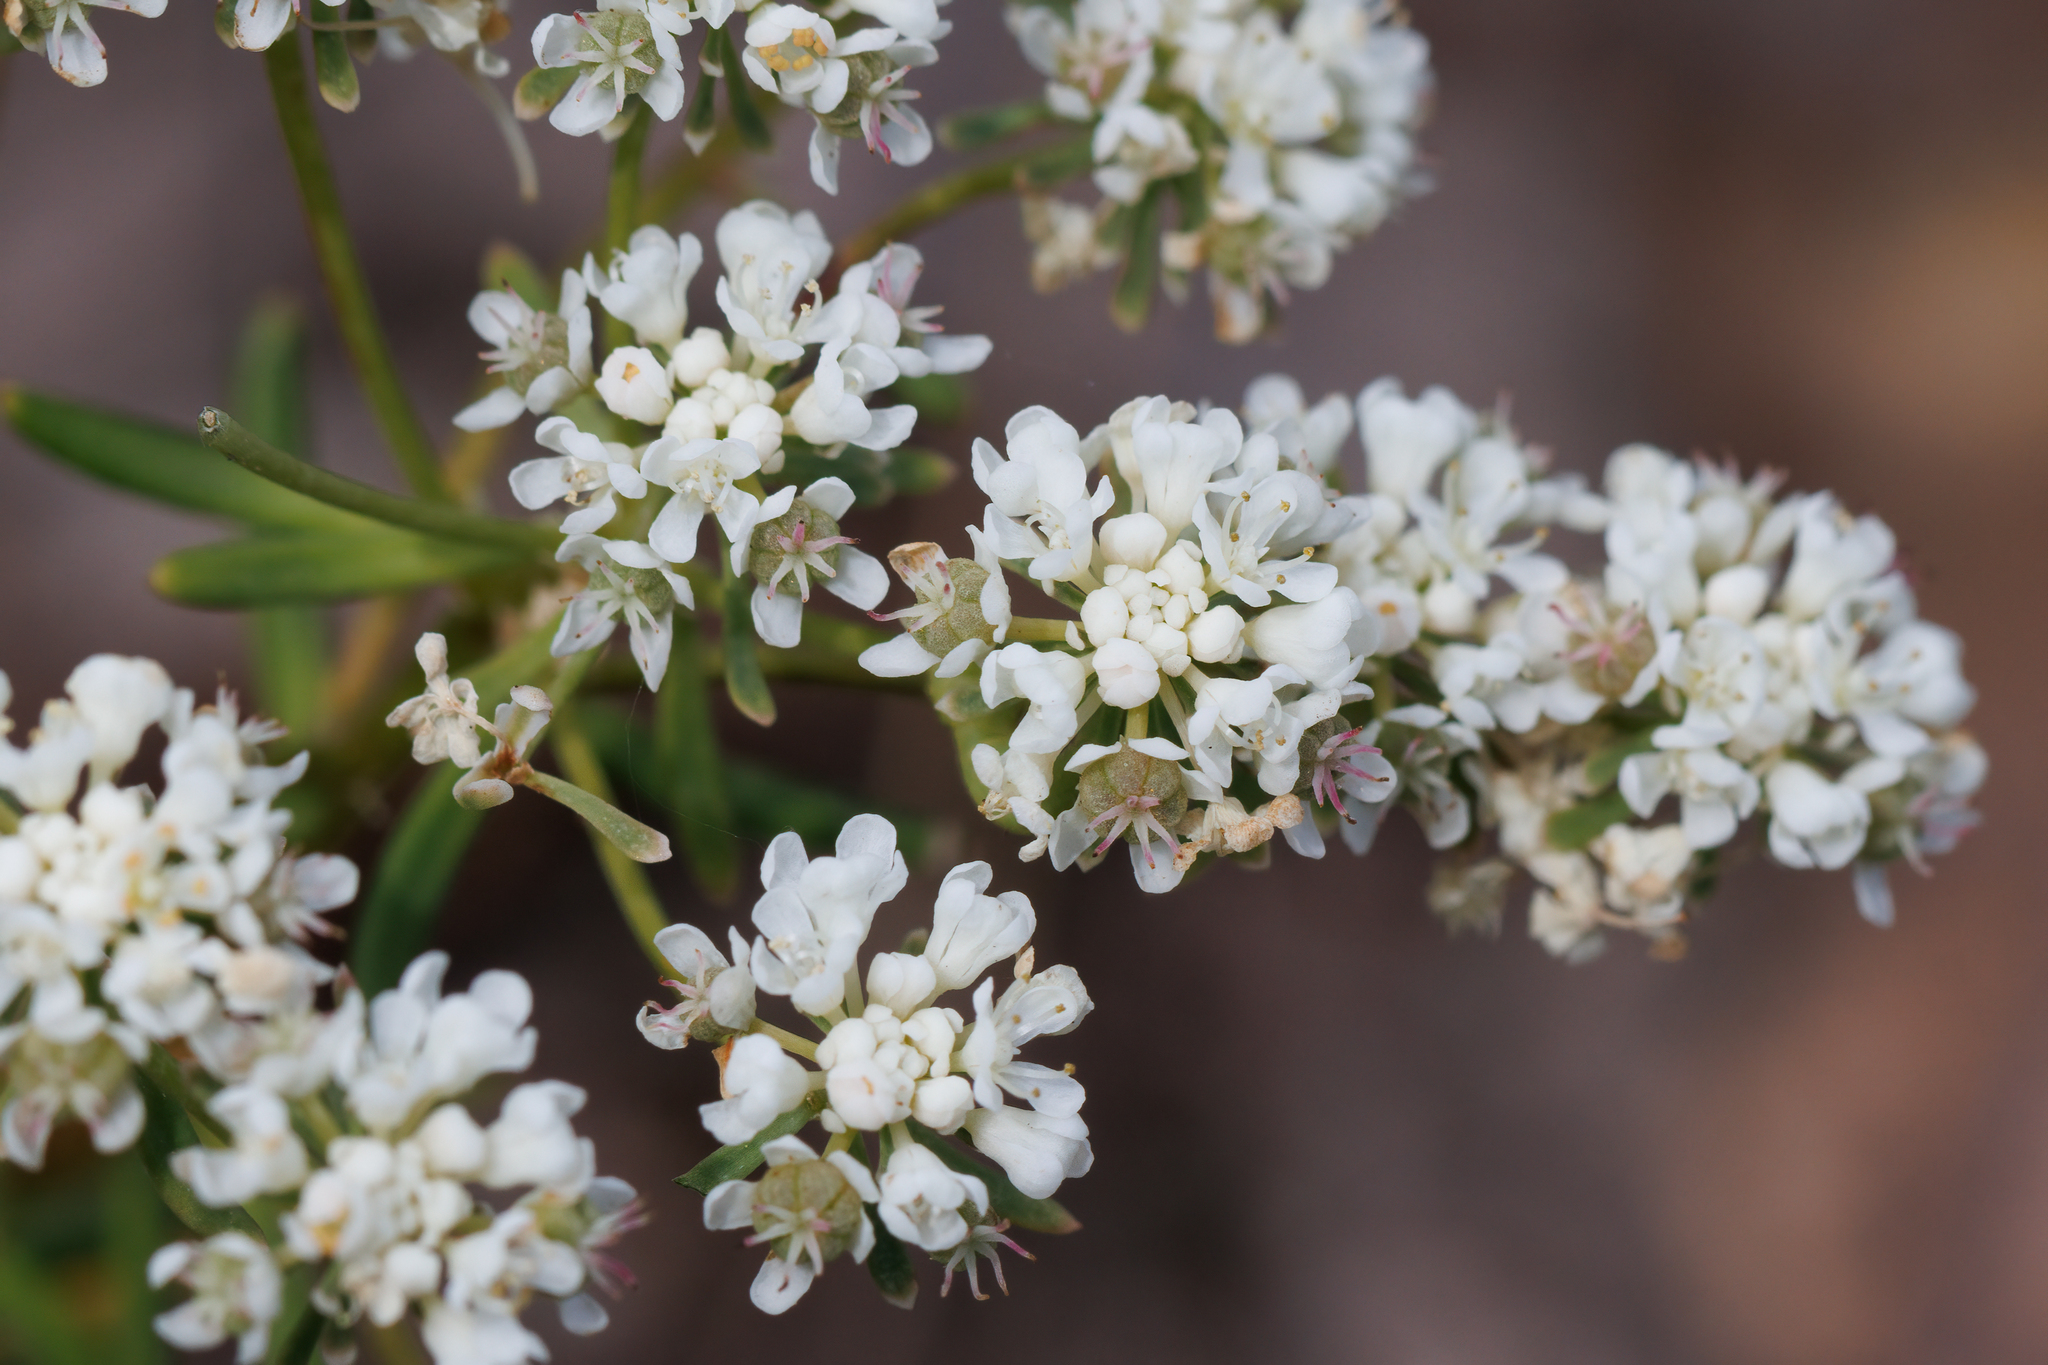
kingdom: Plantae
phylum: Tracheophyta
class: Magnoliopsida
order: Malpighiales
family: Phyllanthaceae
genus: Poranthera
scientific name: Poranthera huegelii
